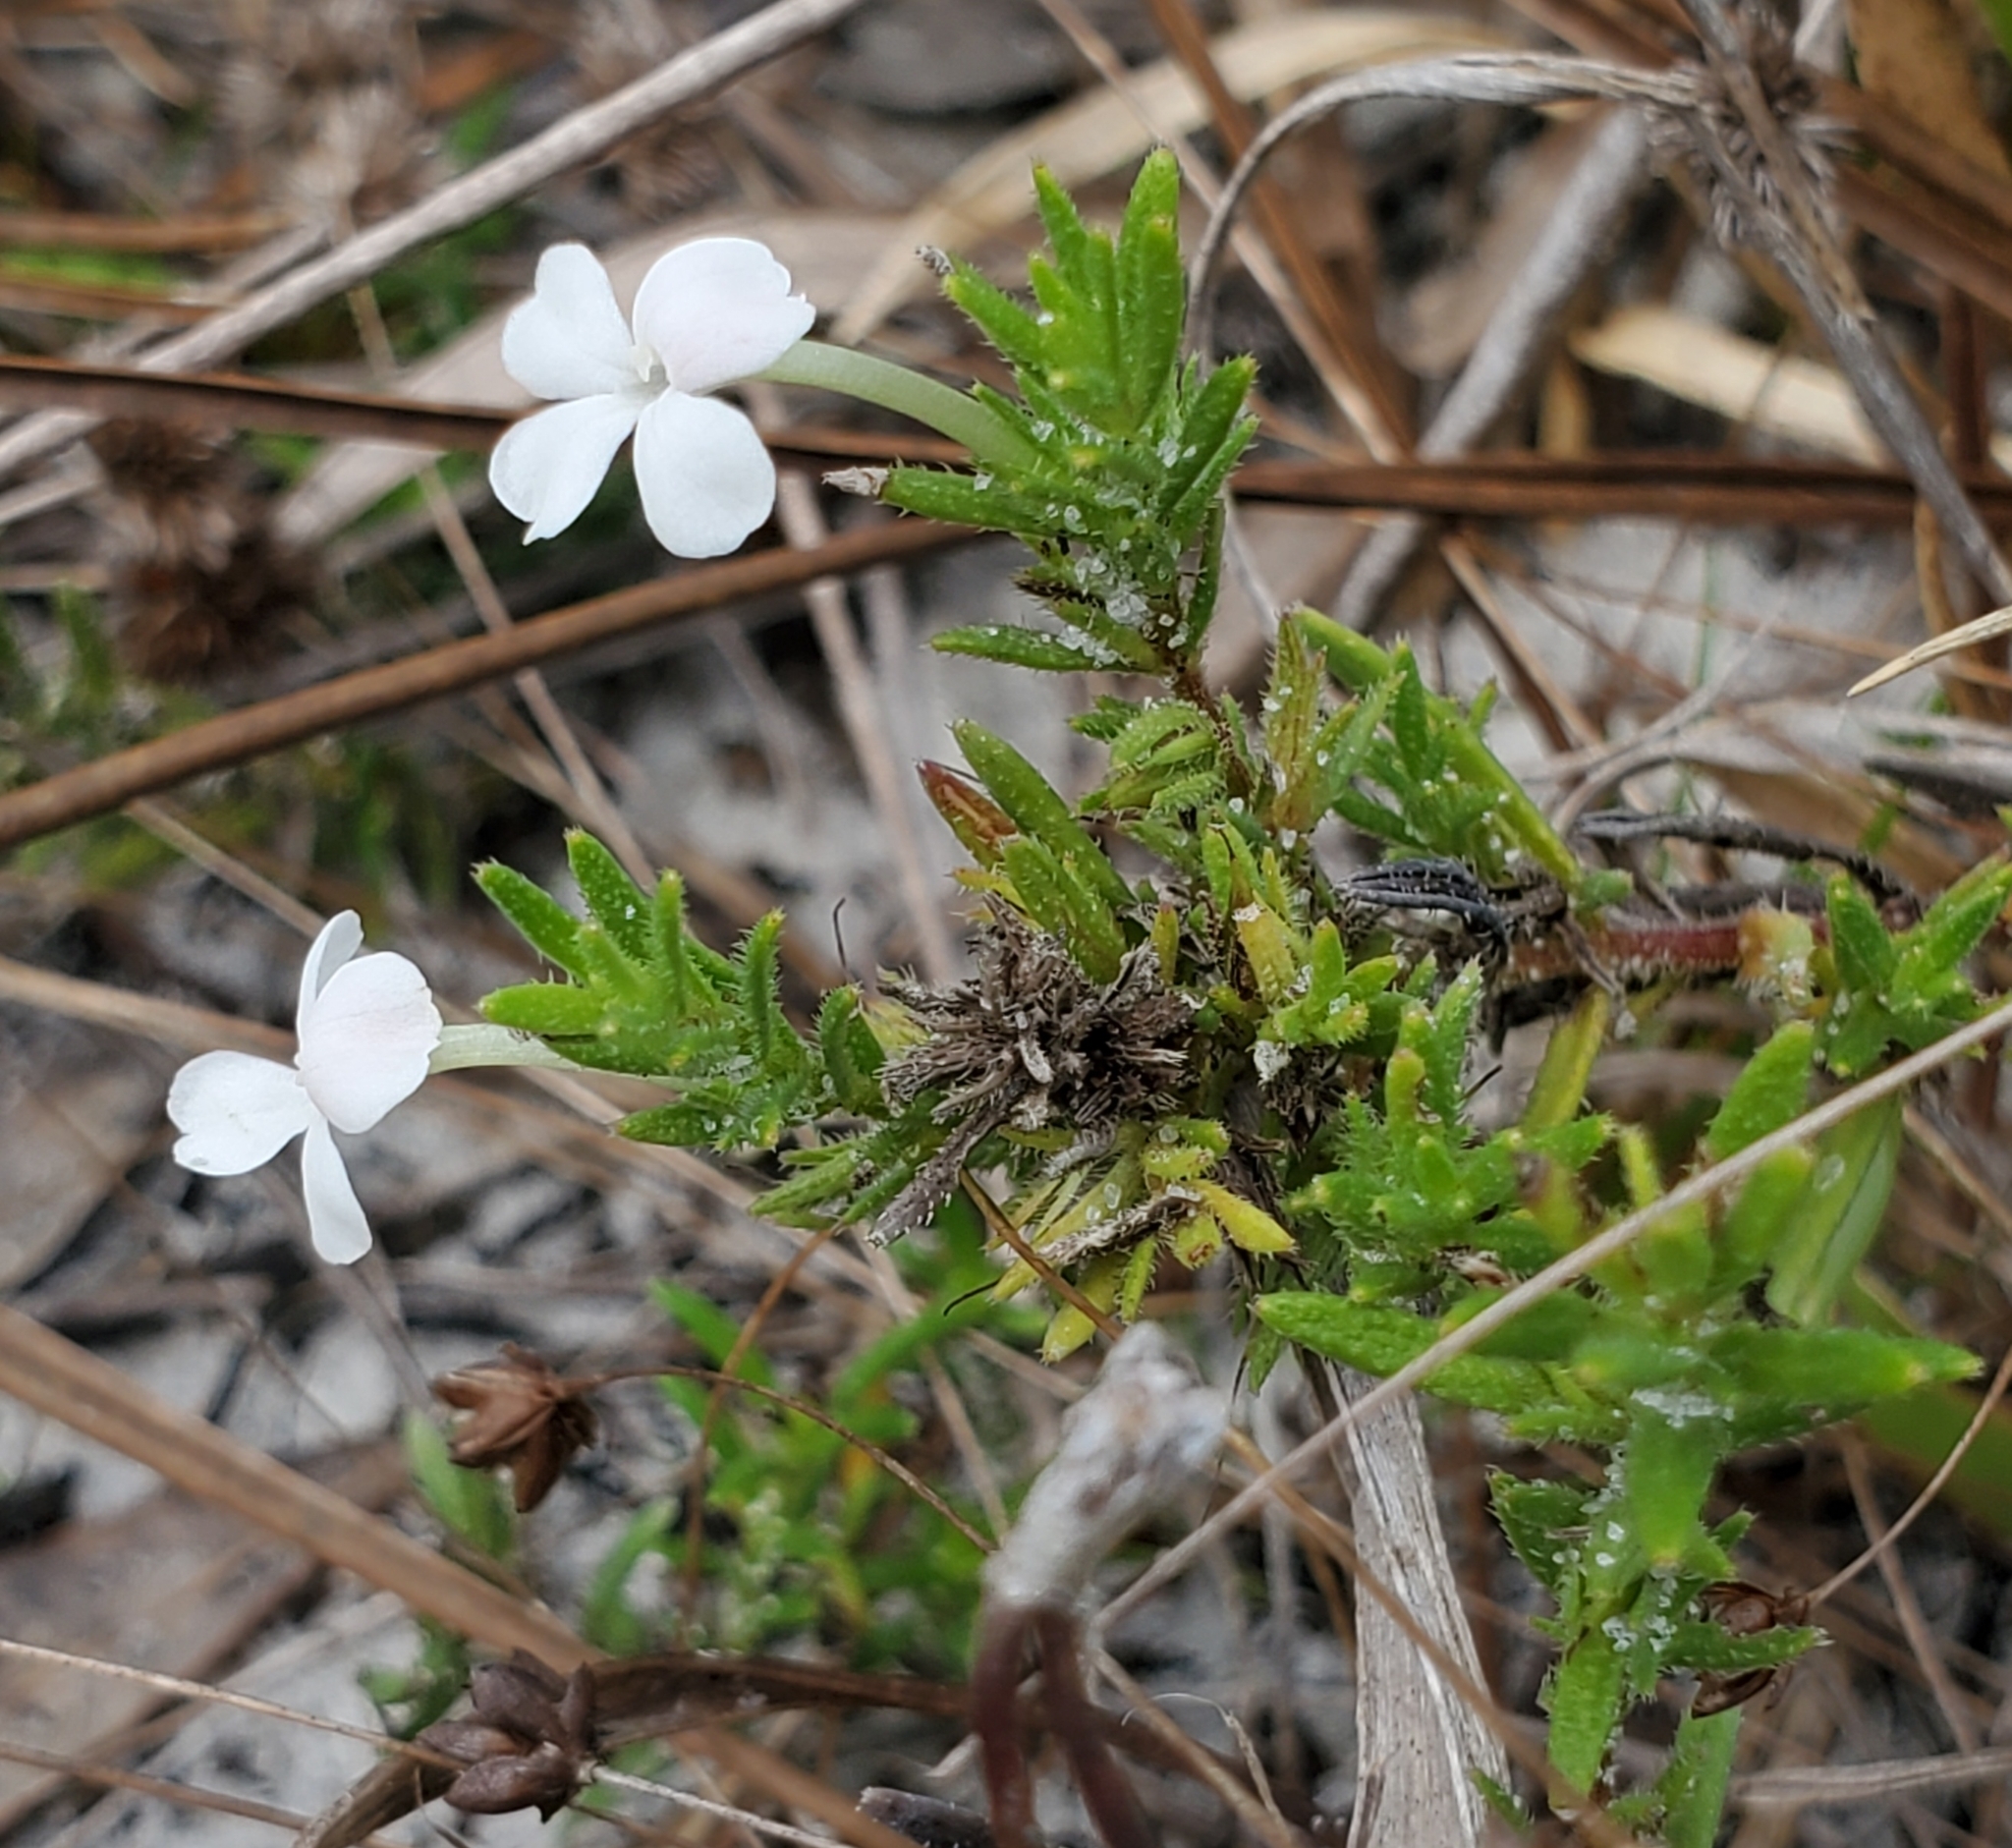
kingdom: Plantae
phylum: Tracheophyta
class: Magnoliopsida
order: Lamiales
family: Plantaginaceae
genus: Gratiola
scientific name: Gratiola hispida
